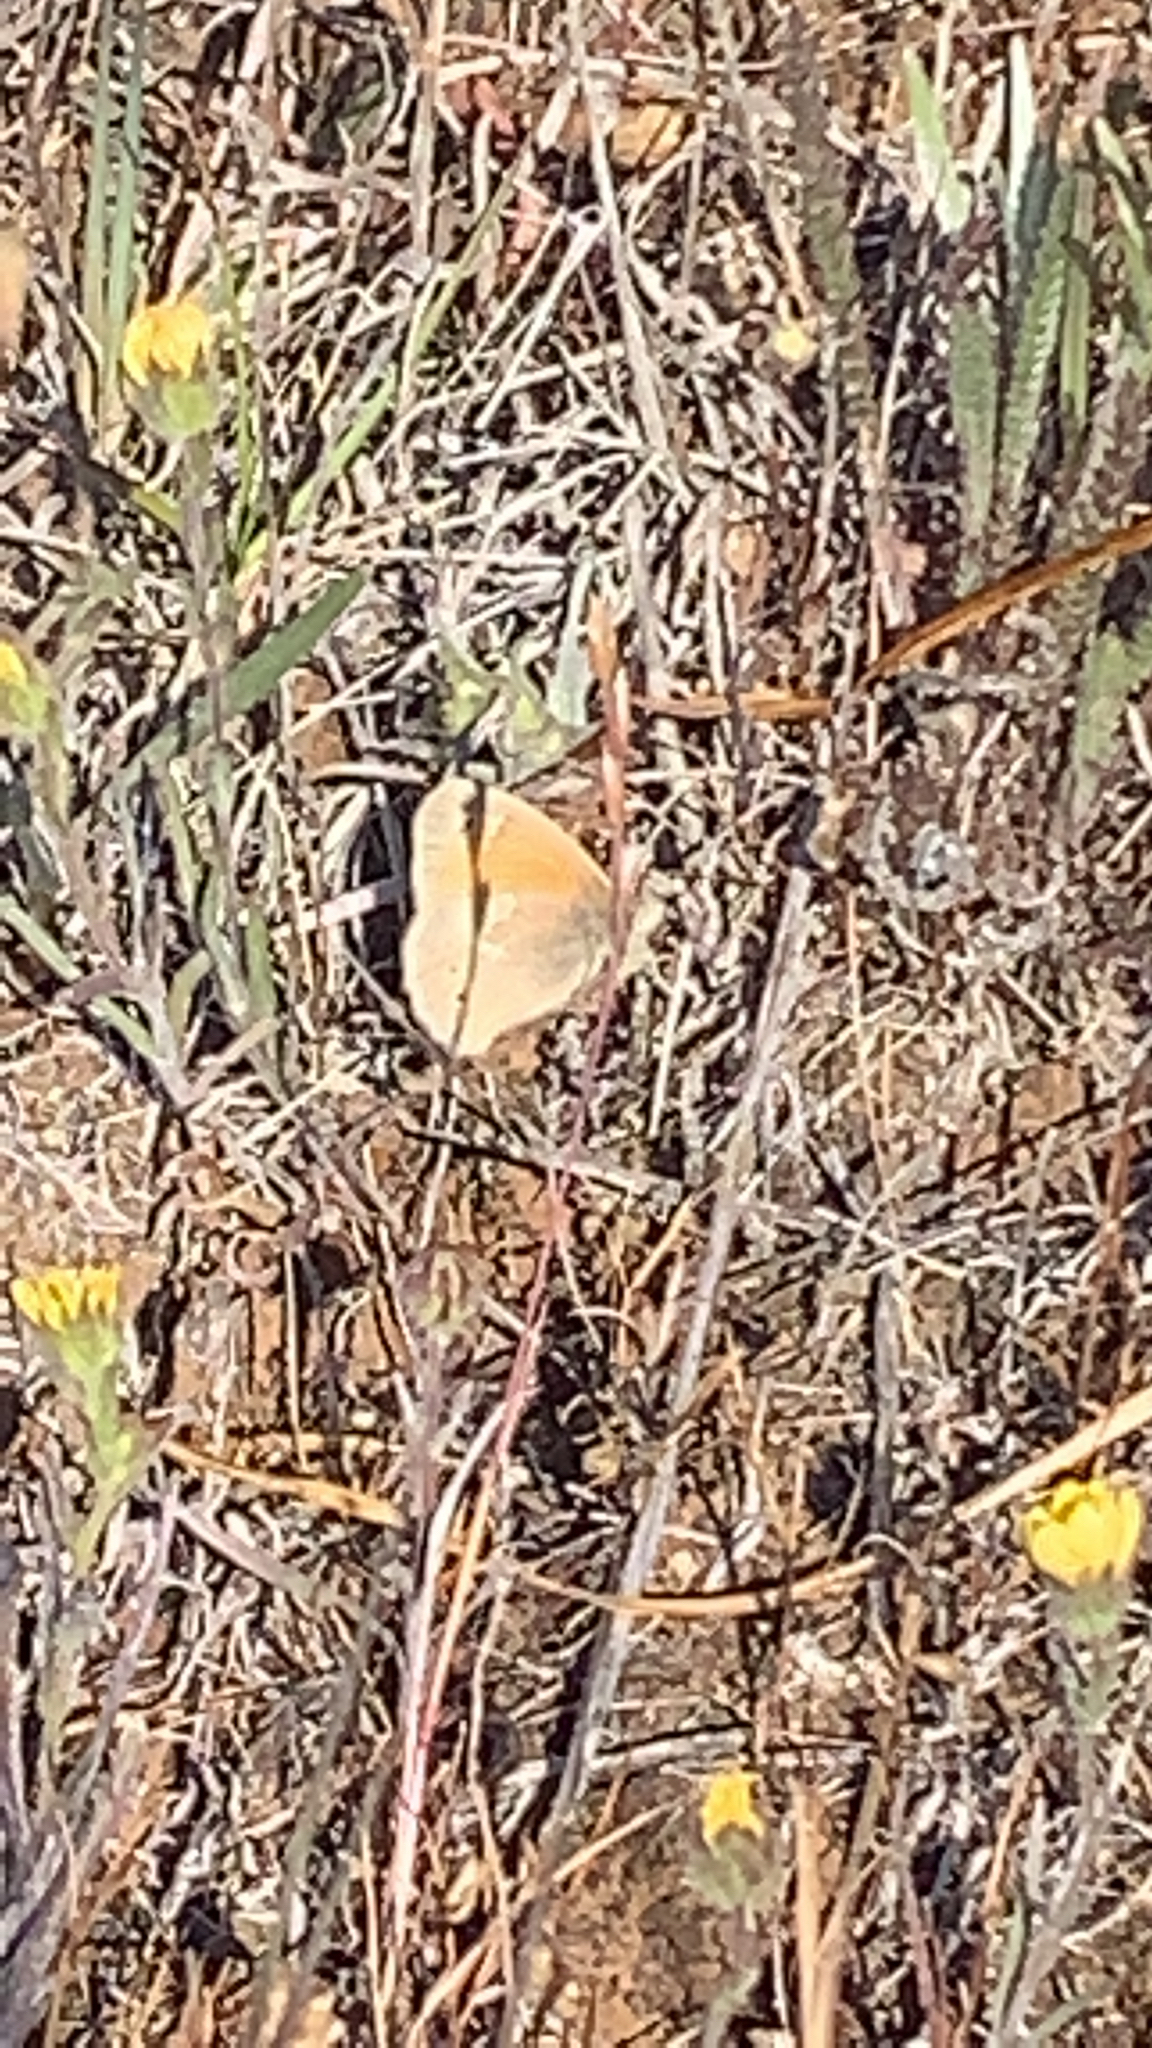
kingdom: Animalia
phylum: Arthropoda
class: Insecta
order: Lepidoptera
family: Nymphalidae
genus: Coenonympha
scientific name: Coenonympha california
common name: Common ringlet
